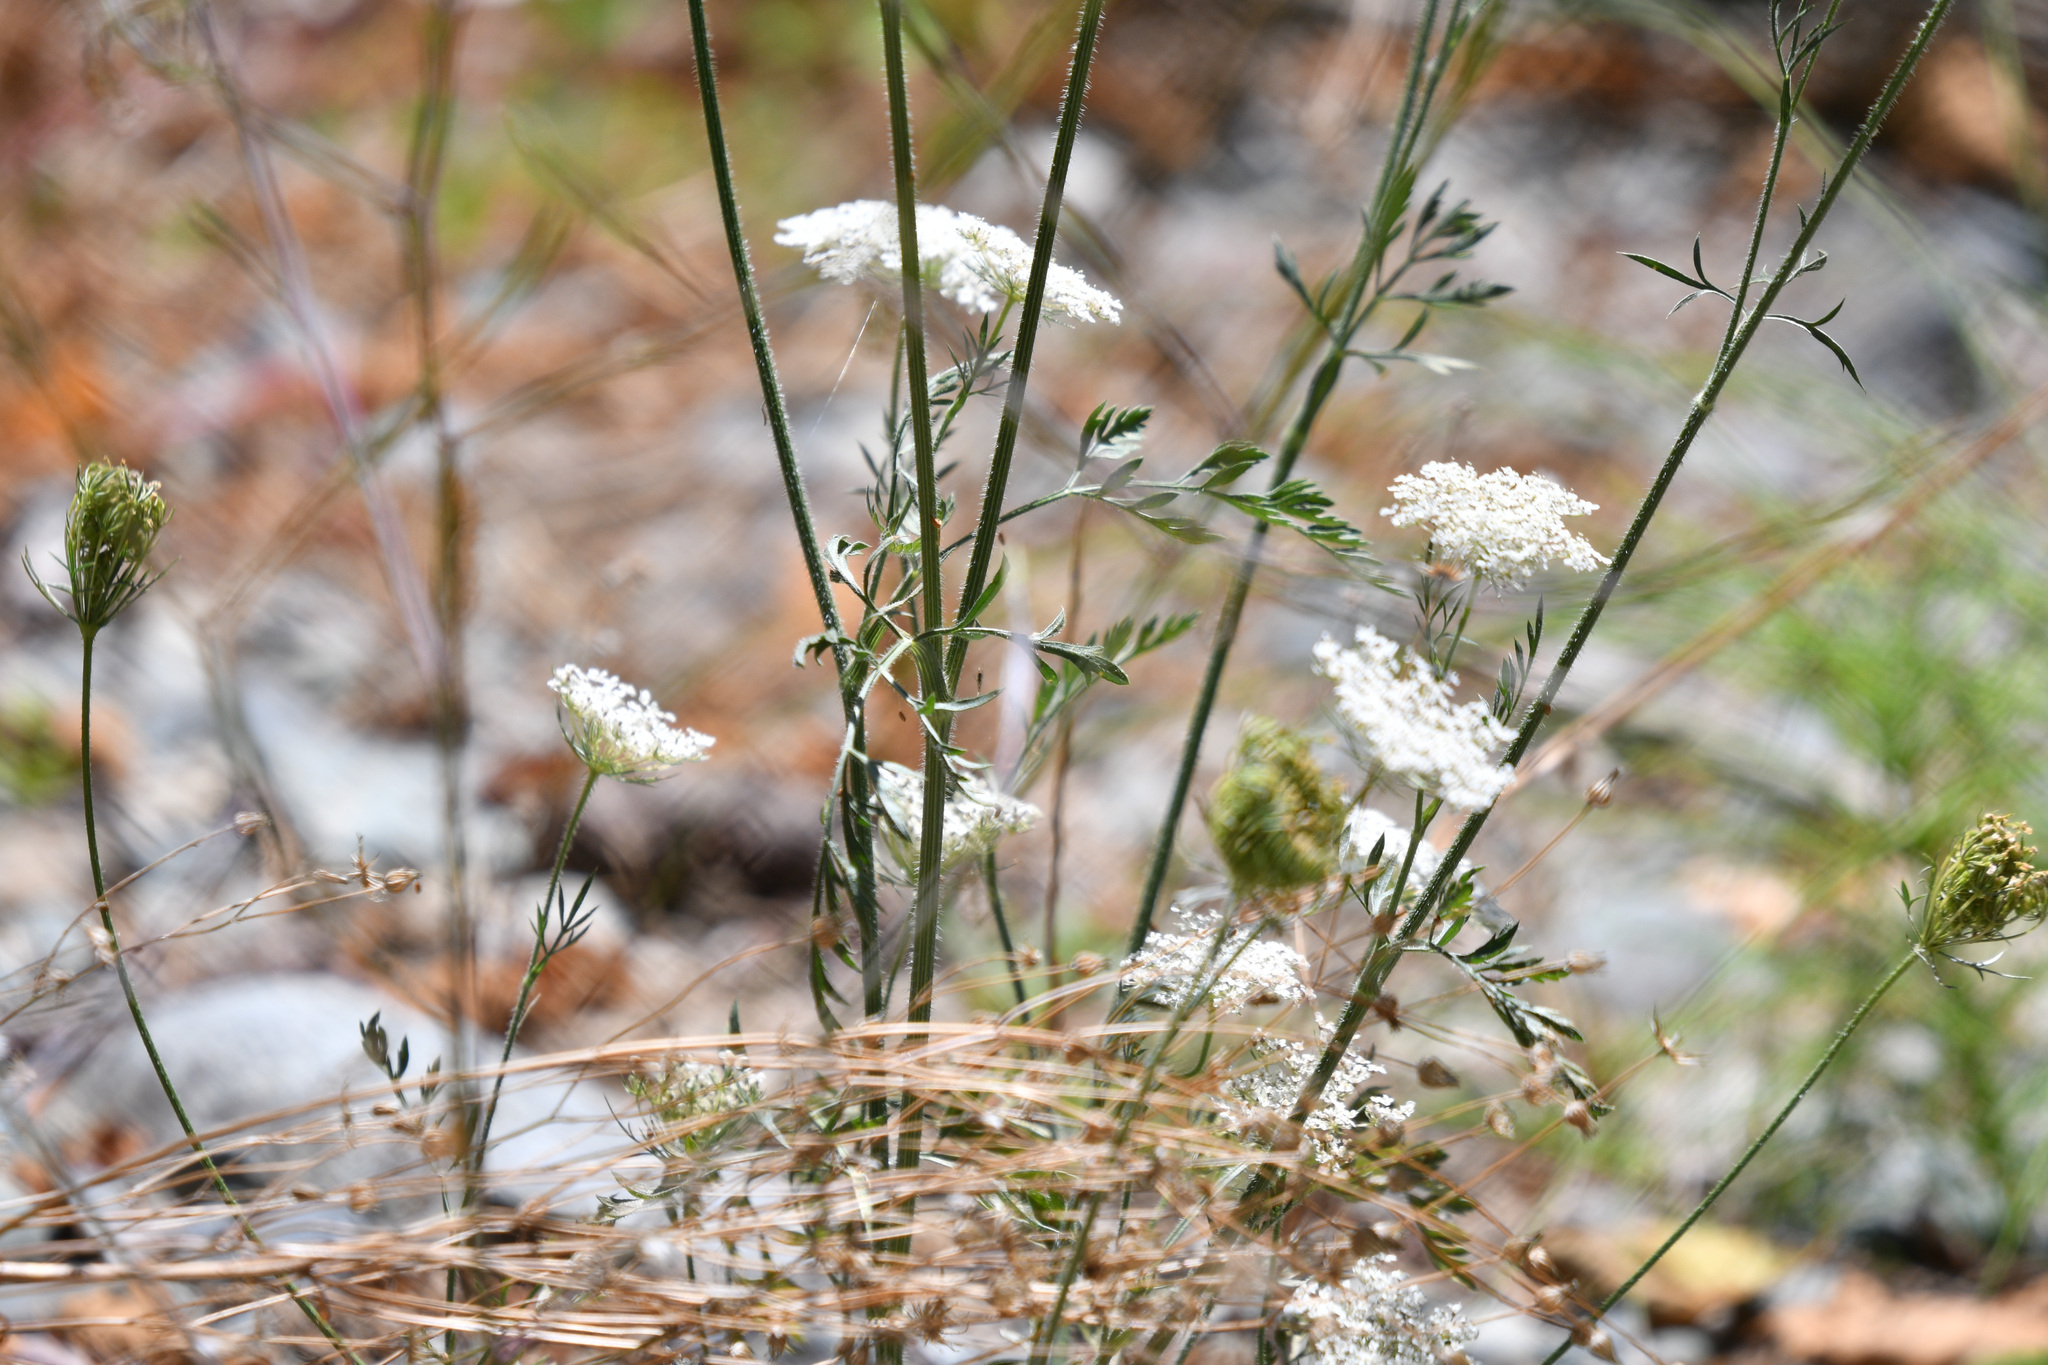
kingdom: Plantae
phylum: Tracheophyta
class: Magnoliopsida
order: Apiales
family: Apiaceae
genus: Daucus
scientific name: Daucus carota
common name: Wild carrot
